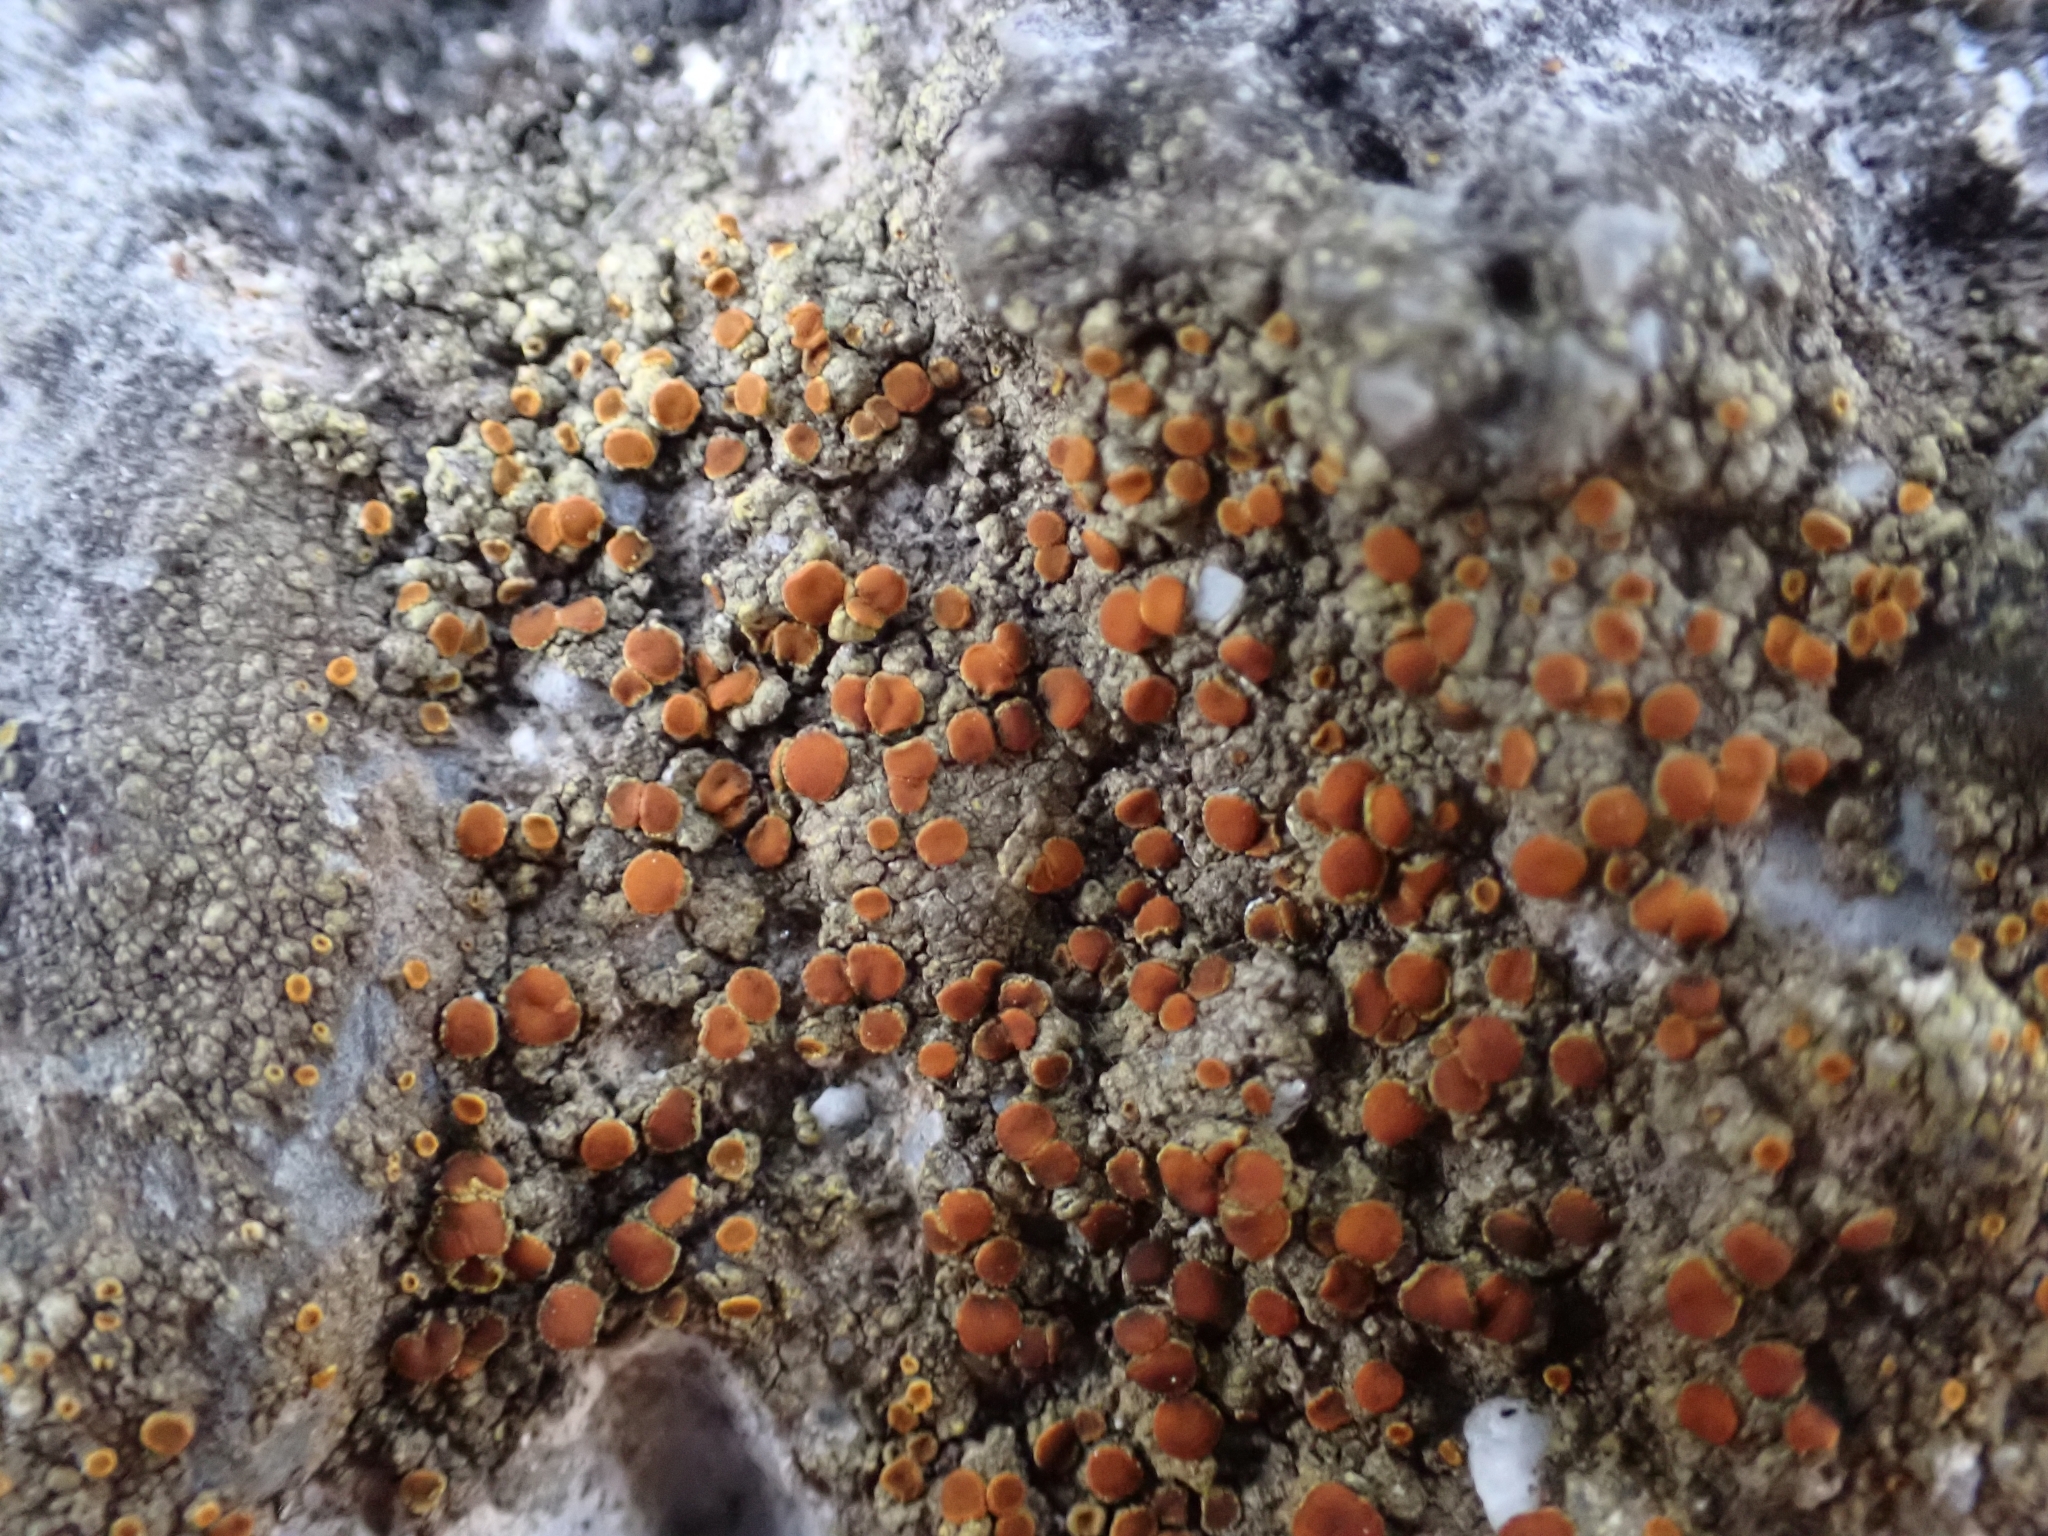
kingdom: Fungi
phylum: Ascomycota
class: Lecanoromycetes
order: Teloschistales
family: Teloschistaceae
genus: Gyalolechia
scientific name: Gyalolechia flavovirescens
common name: Sulphur firedot
